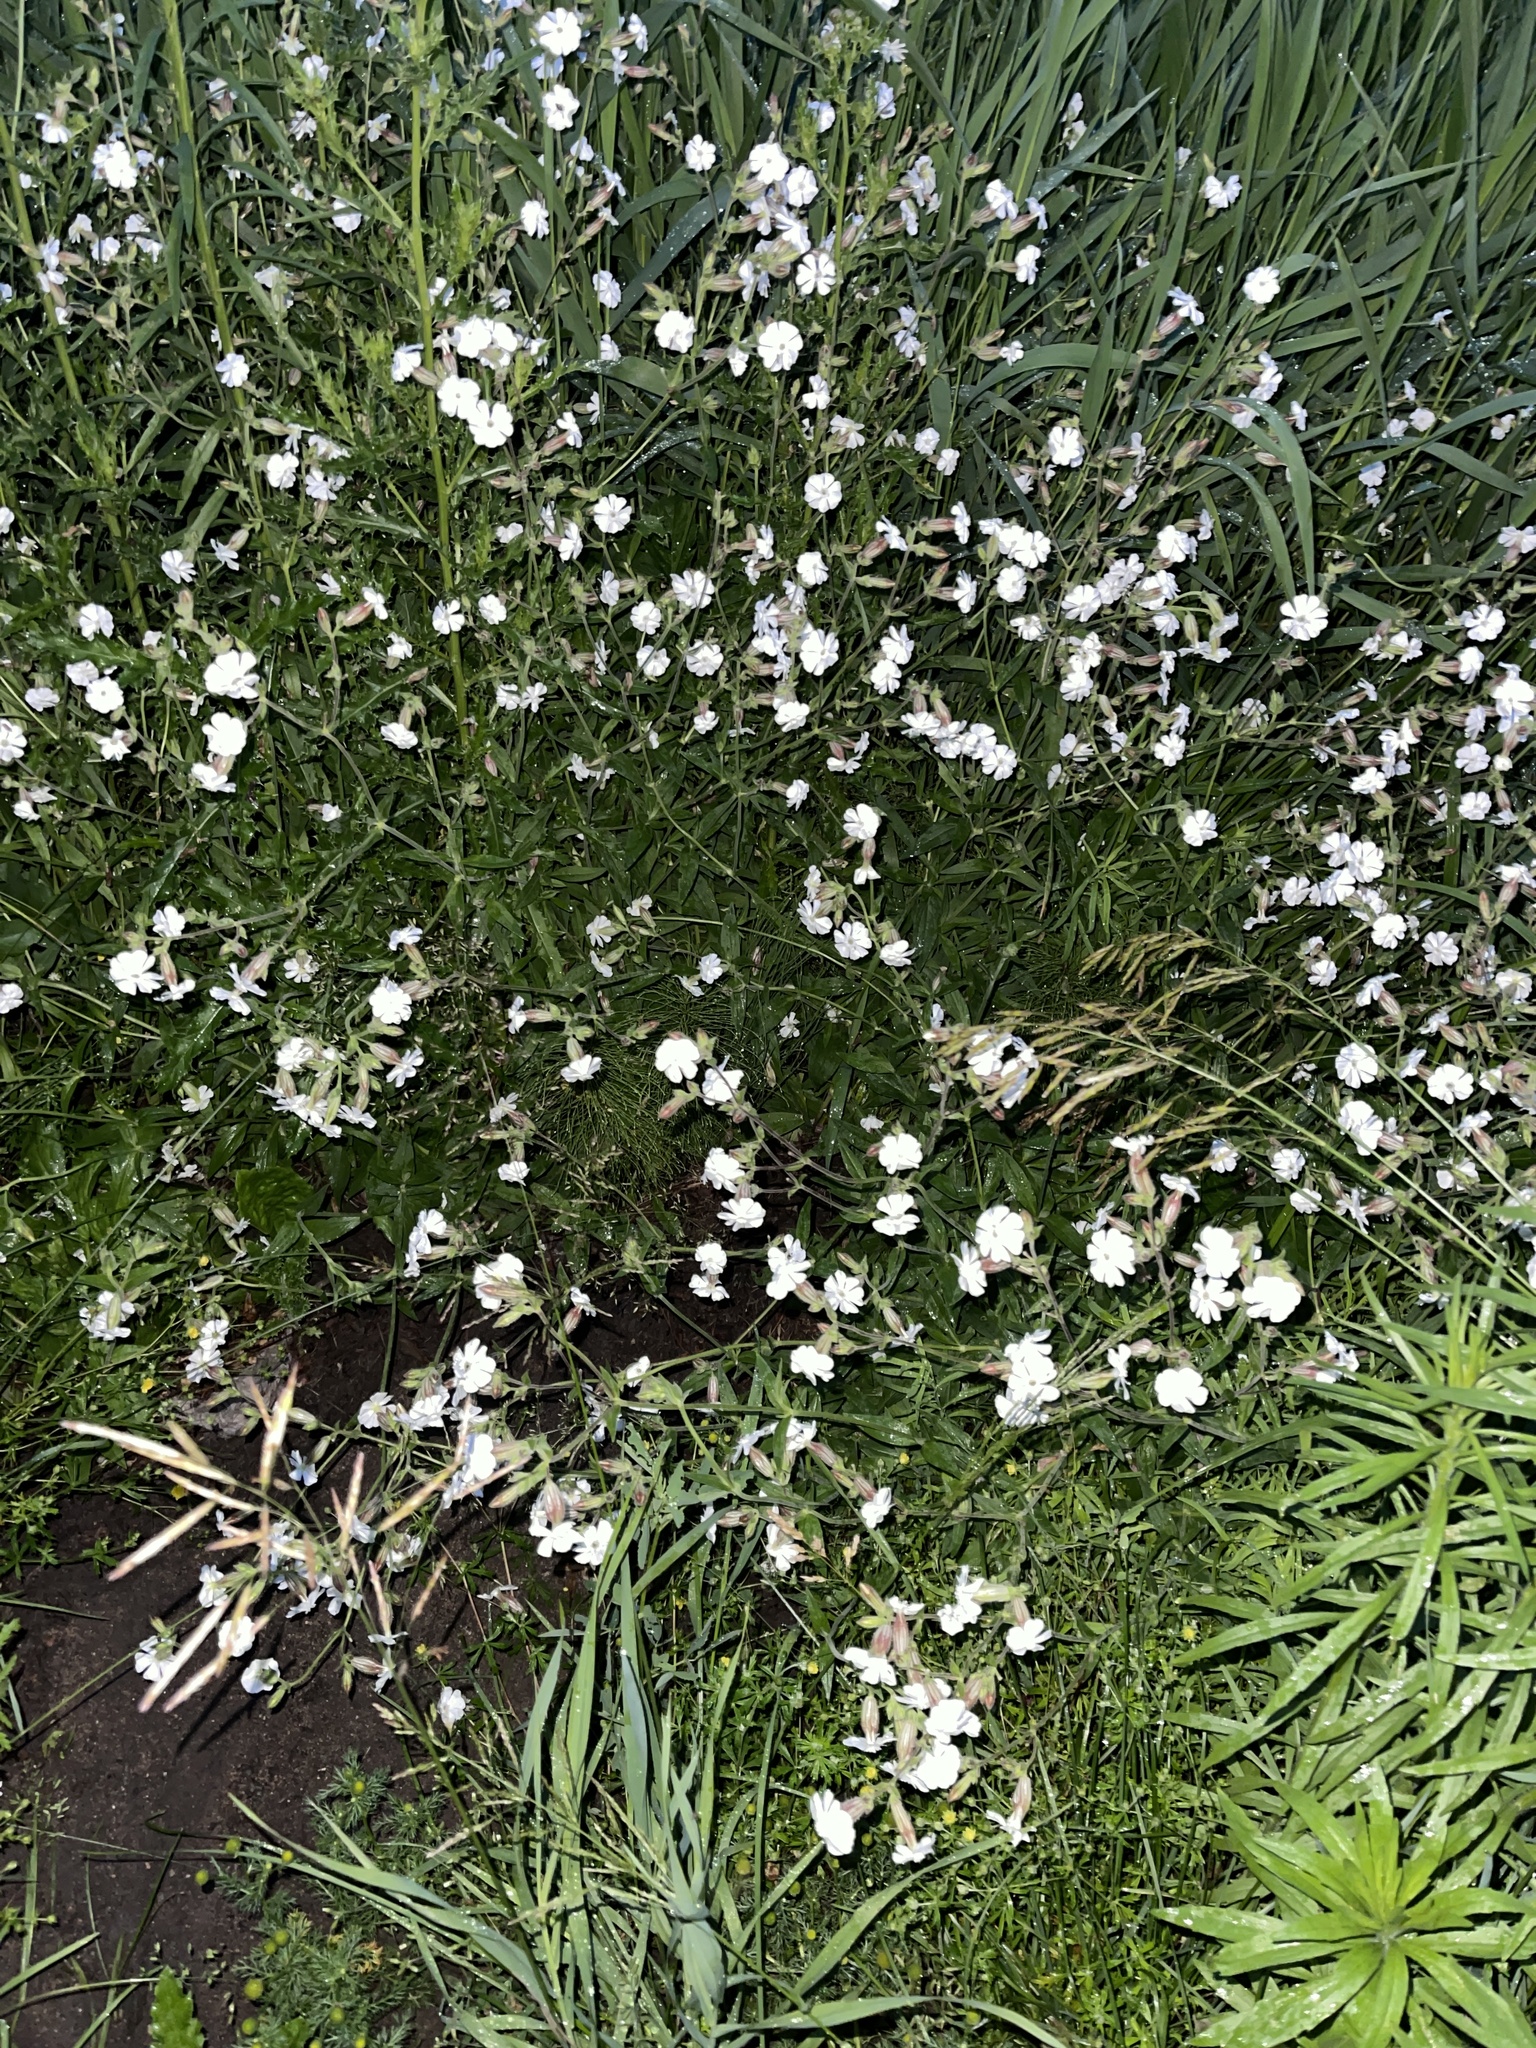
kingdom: Plantae
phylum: Tracheophyta
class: Magnoliopsida
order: Caryophyllales
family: Caryophyllaceae
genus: Silene
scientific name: Silene latifolia
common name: White campion
